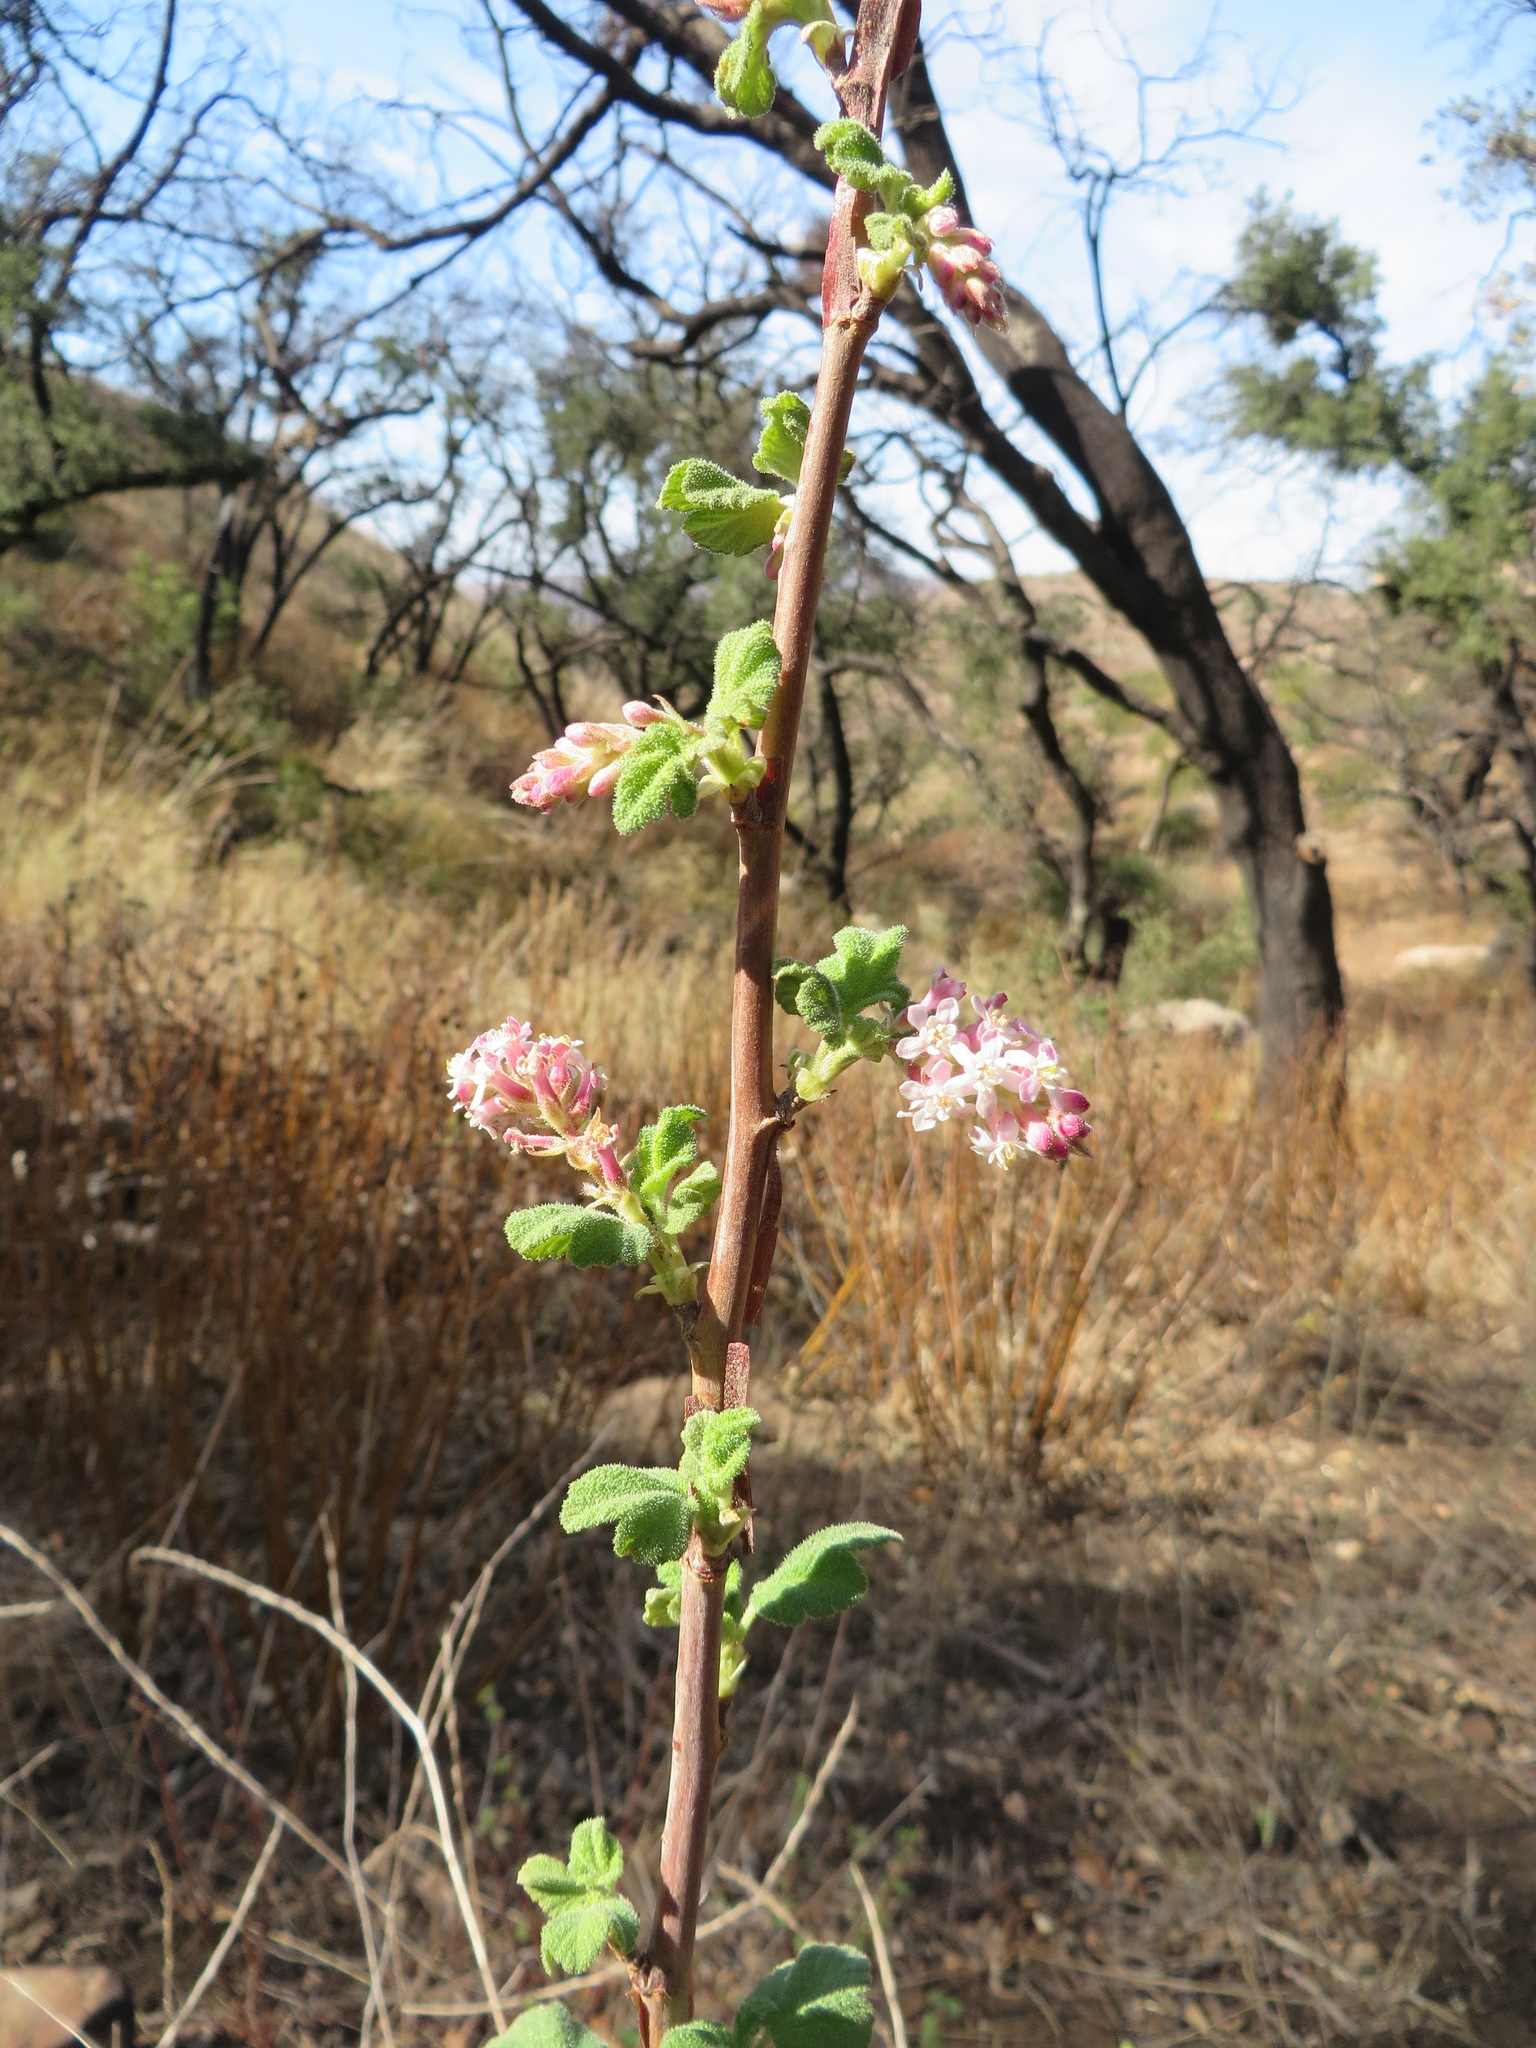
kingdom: Plantae
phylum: Tracheophyta
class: Magnoliopsida
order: Saxifragales
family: Grossulariaceae
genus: Ribes
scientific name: Ribes malvaceum
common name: Chaparral currant
